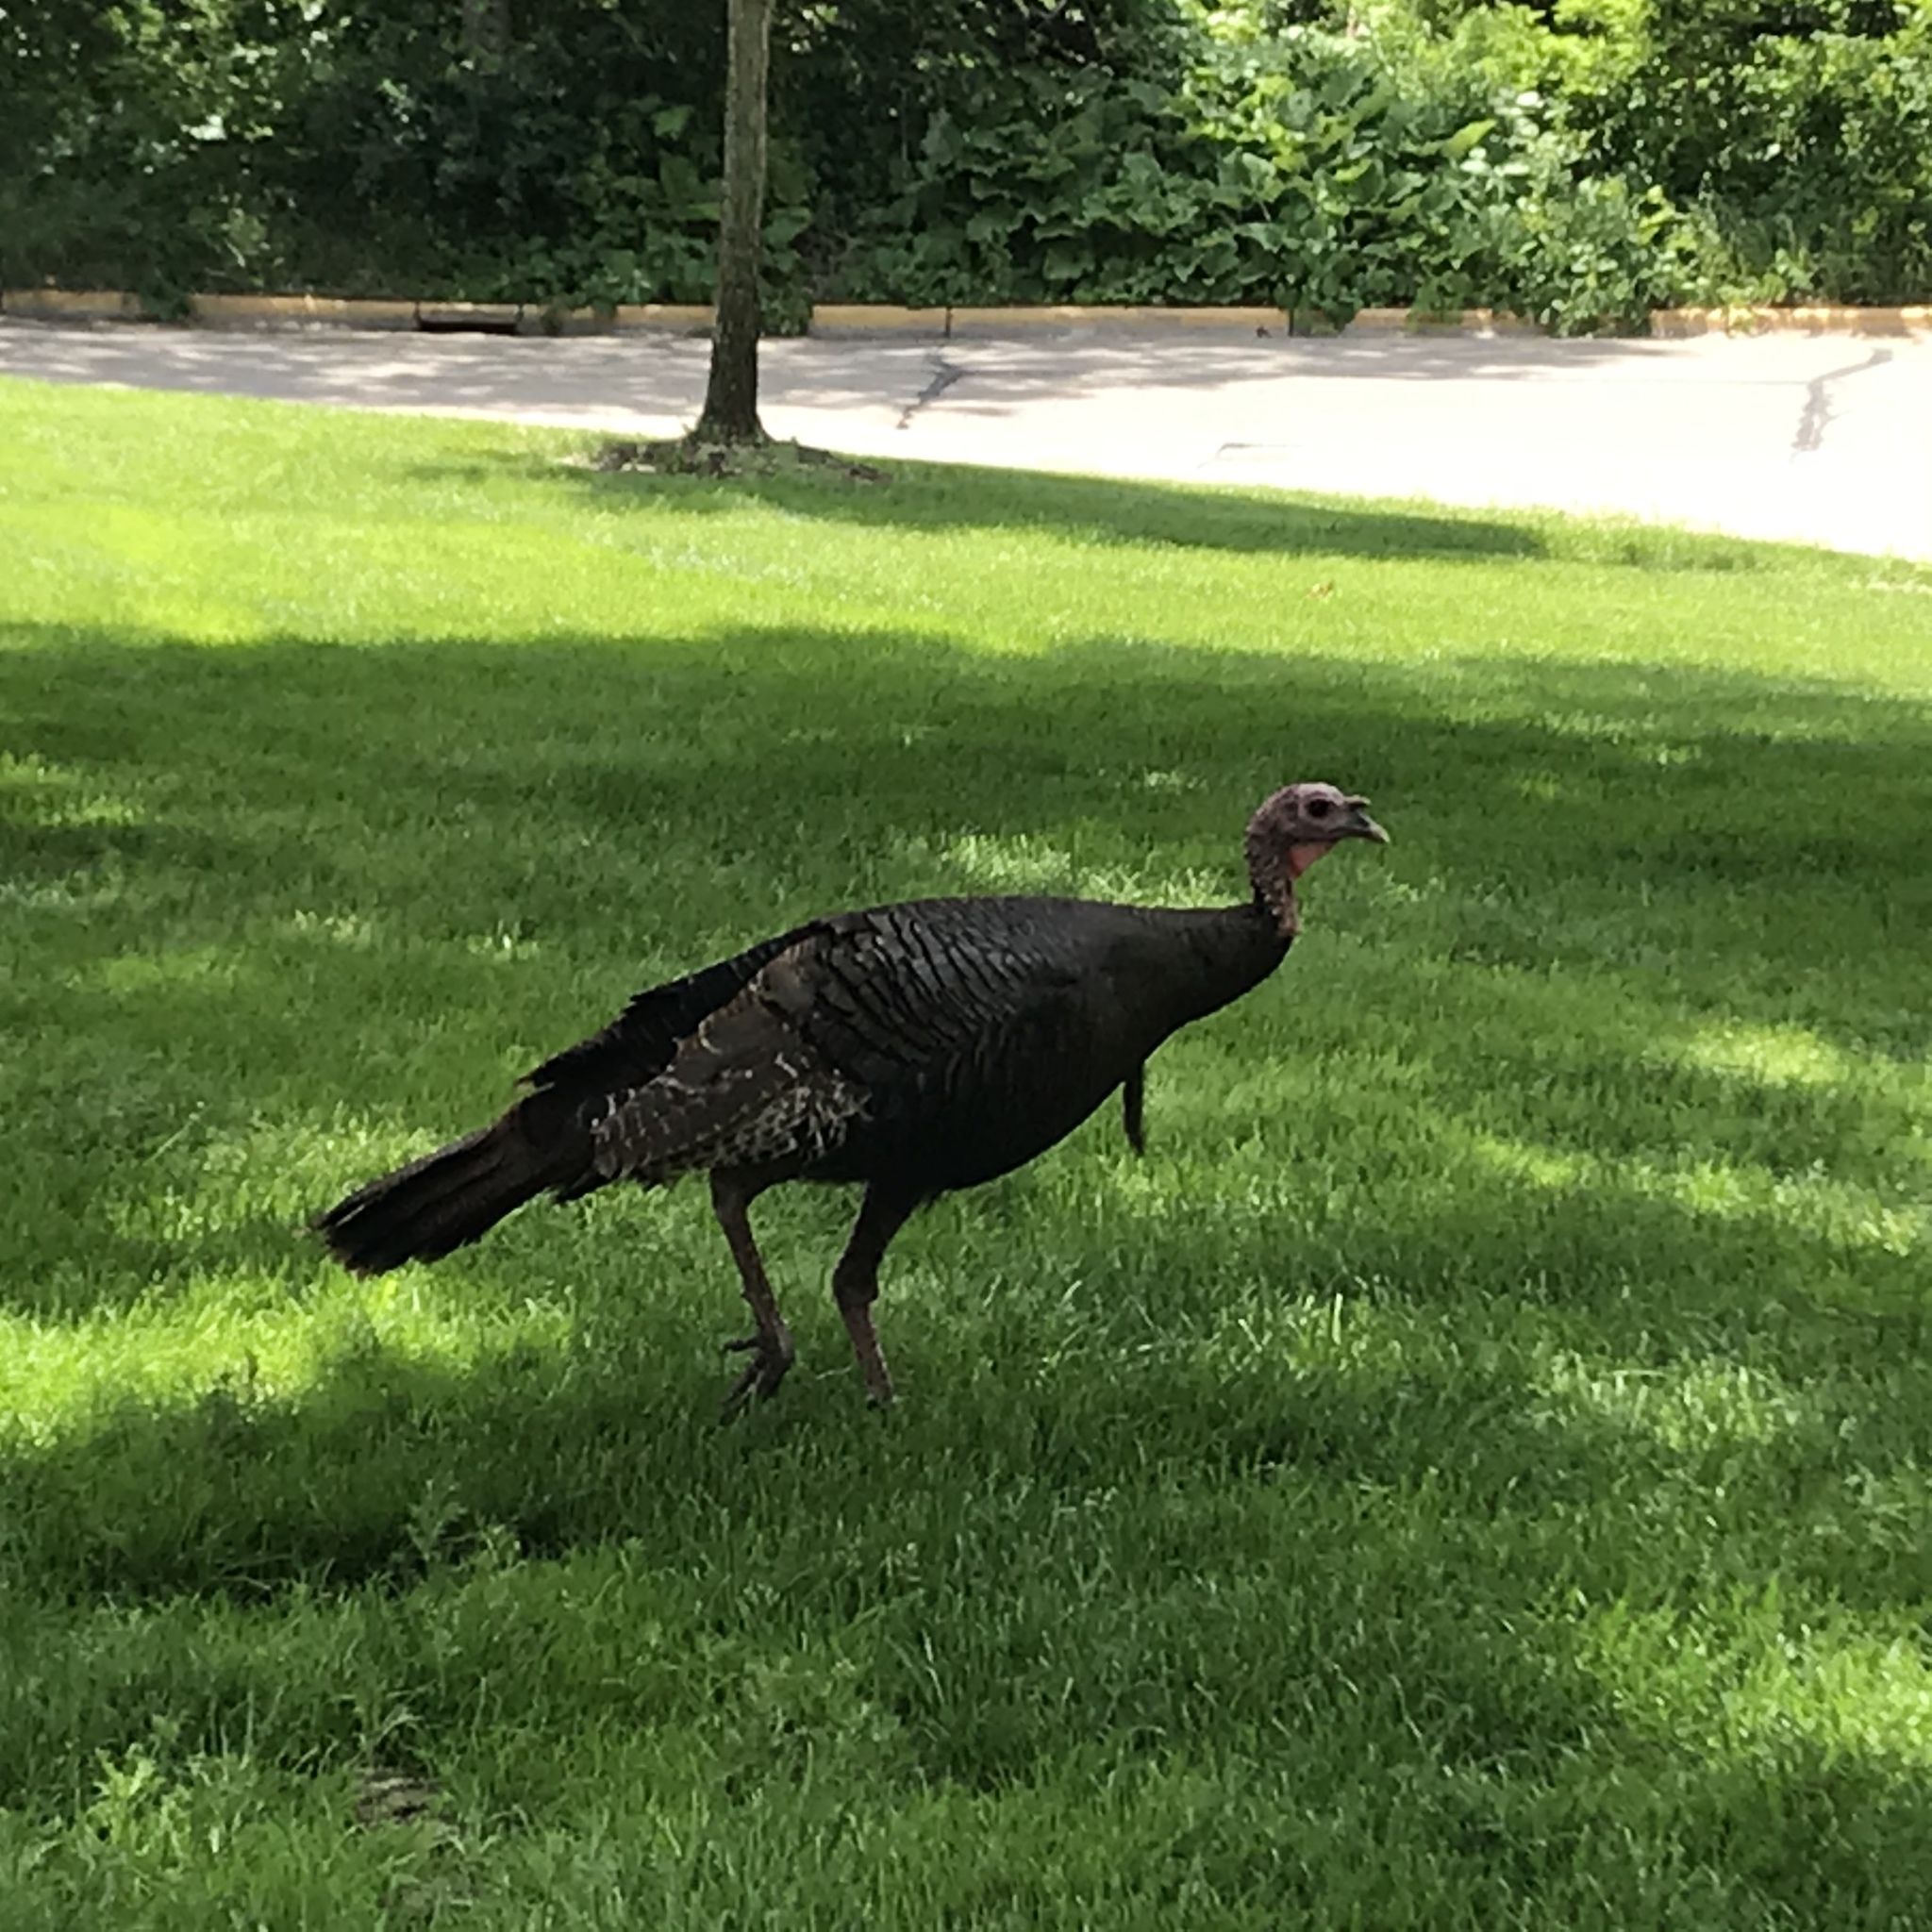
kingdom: Animalia
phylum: Chordata
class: Aves
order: Galliformes
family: Phasianidae
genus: Meleagris
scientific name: Meleagris gallopavo
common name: Wild turkey
